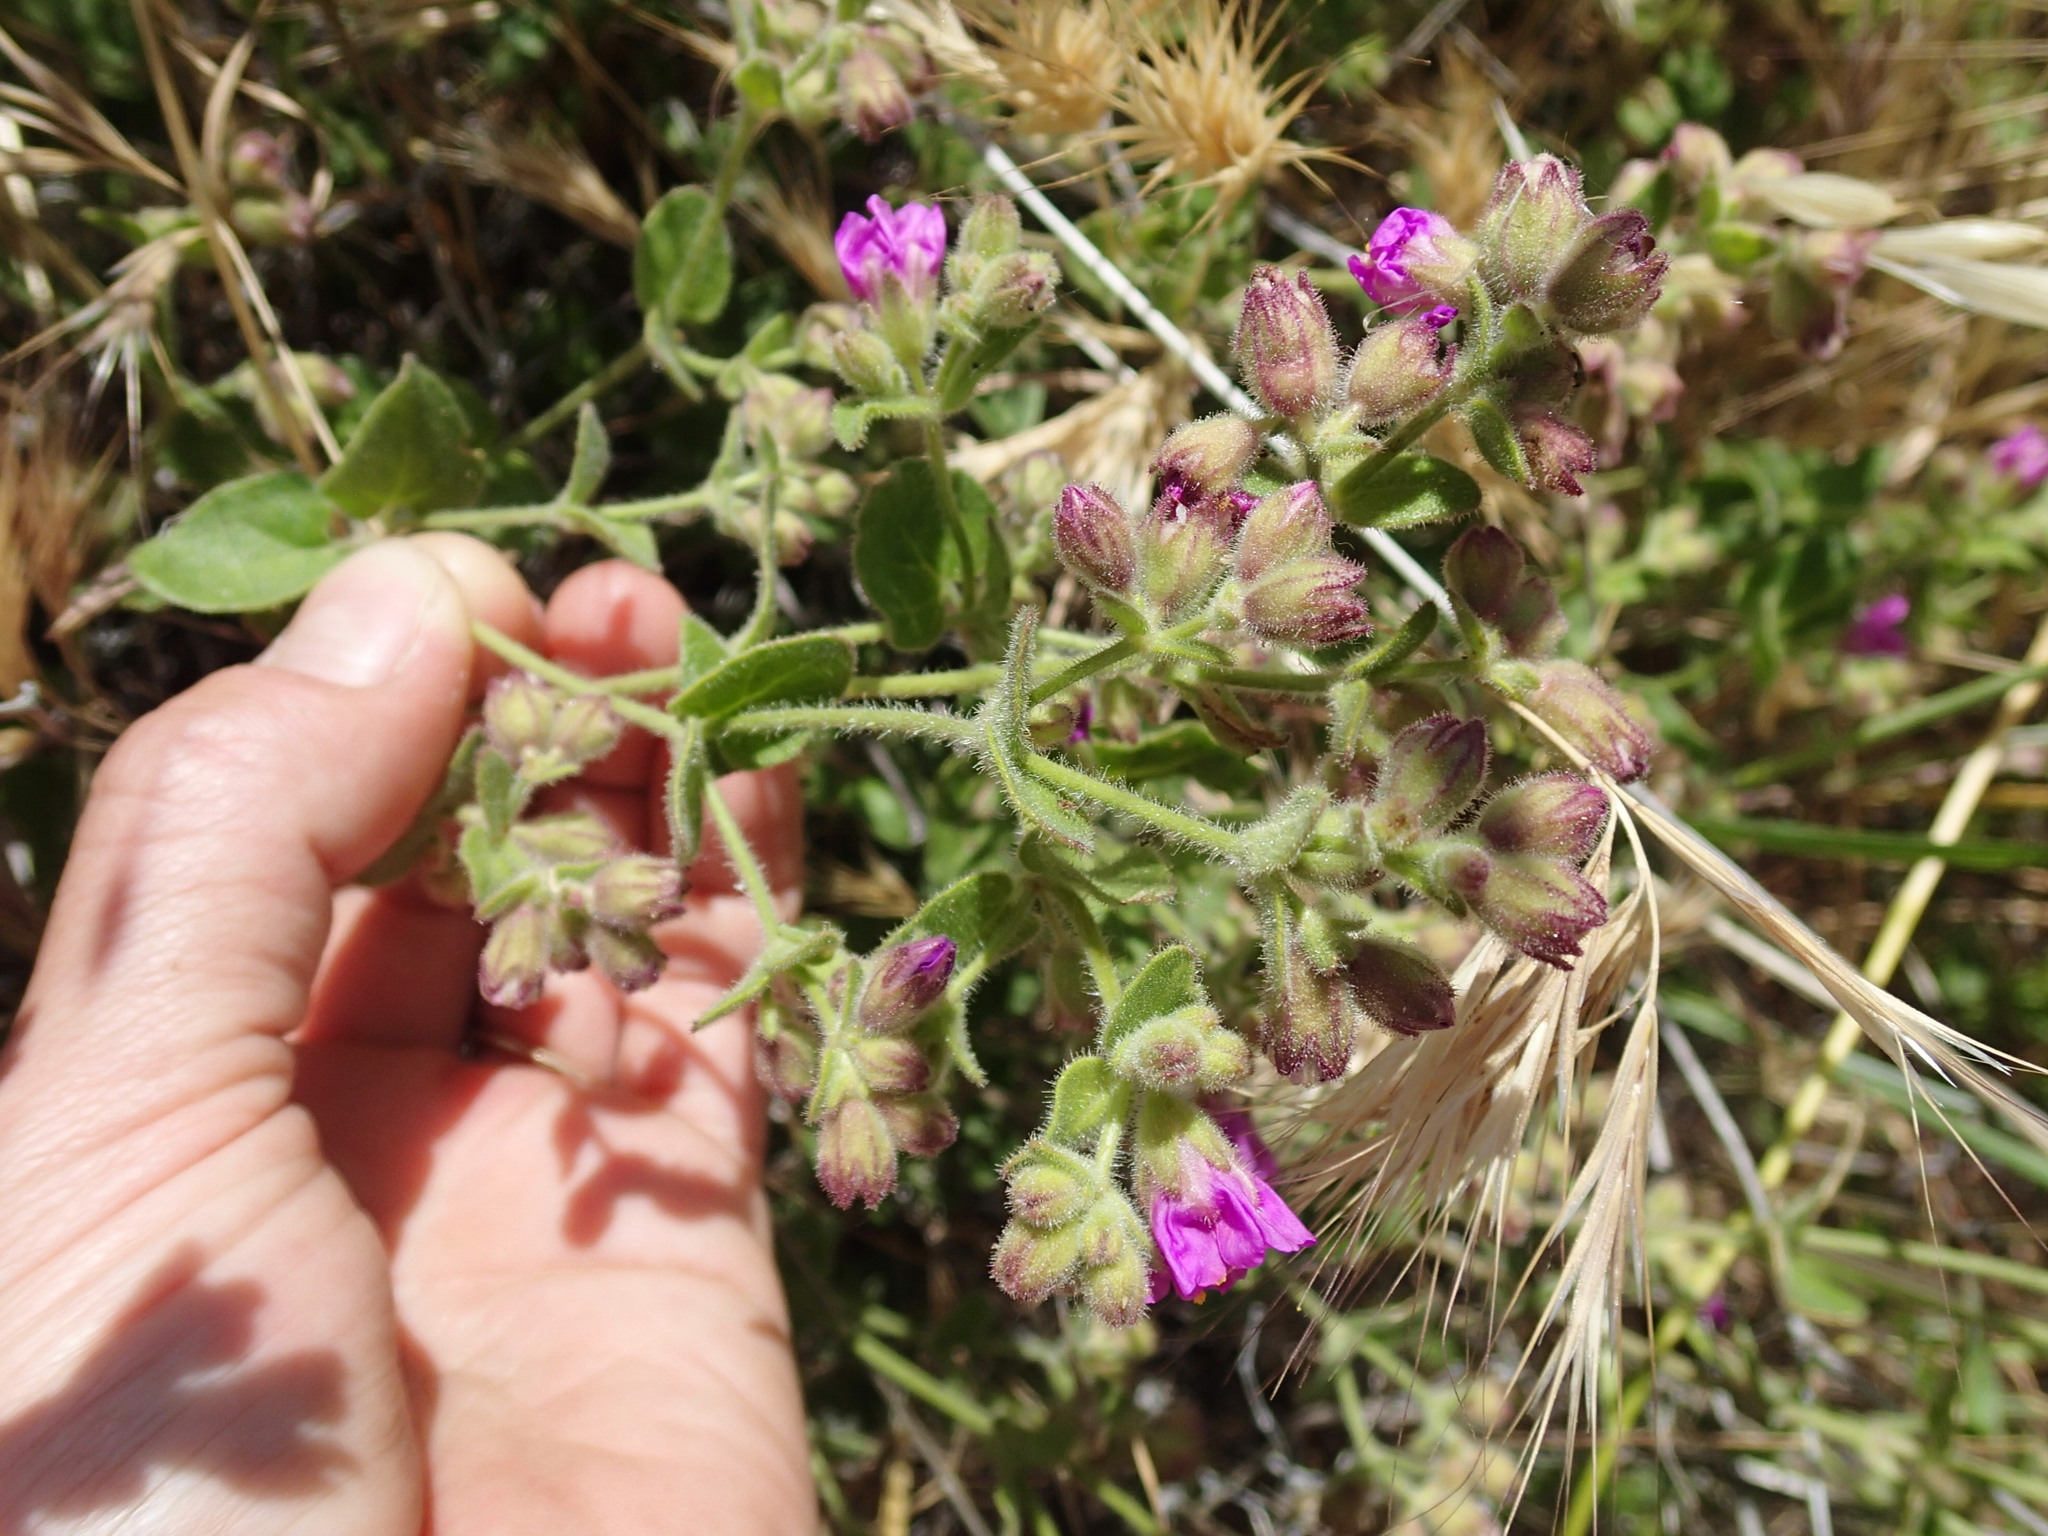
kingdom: Plantae
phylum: Tracheophyta
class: Magnoliopsida
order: Caryophyllales
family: Nyctaginaceae
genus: Mirabilis
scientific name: Mirabilis laevis
